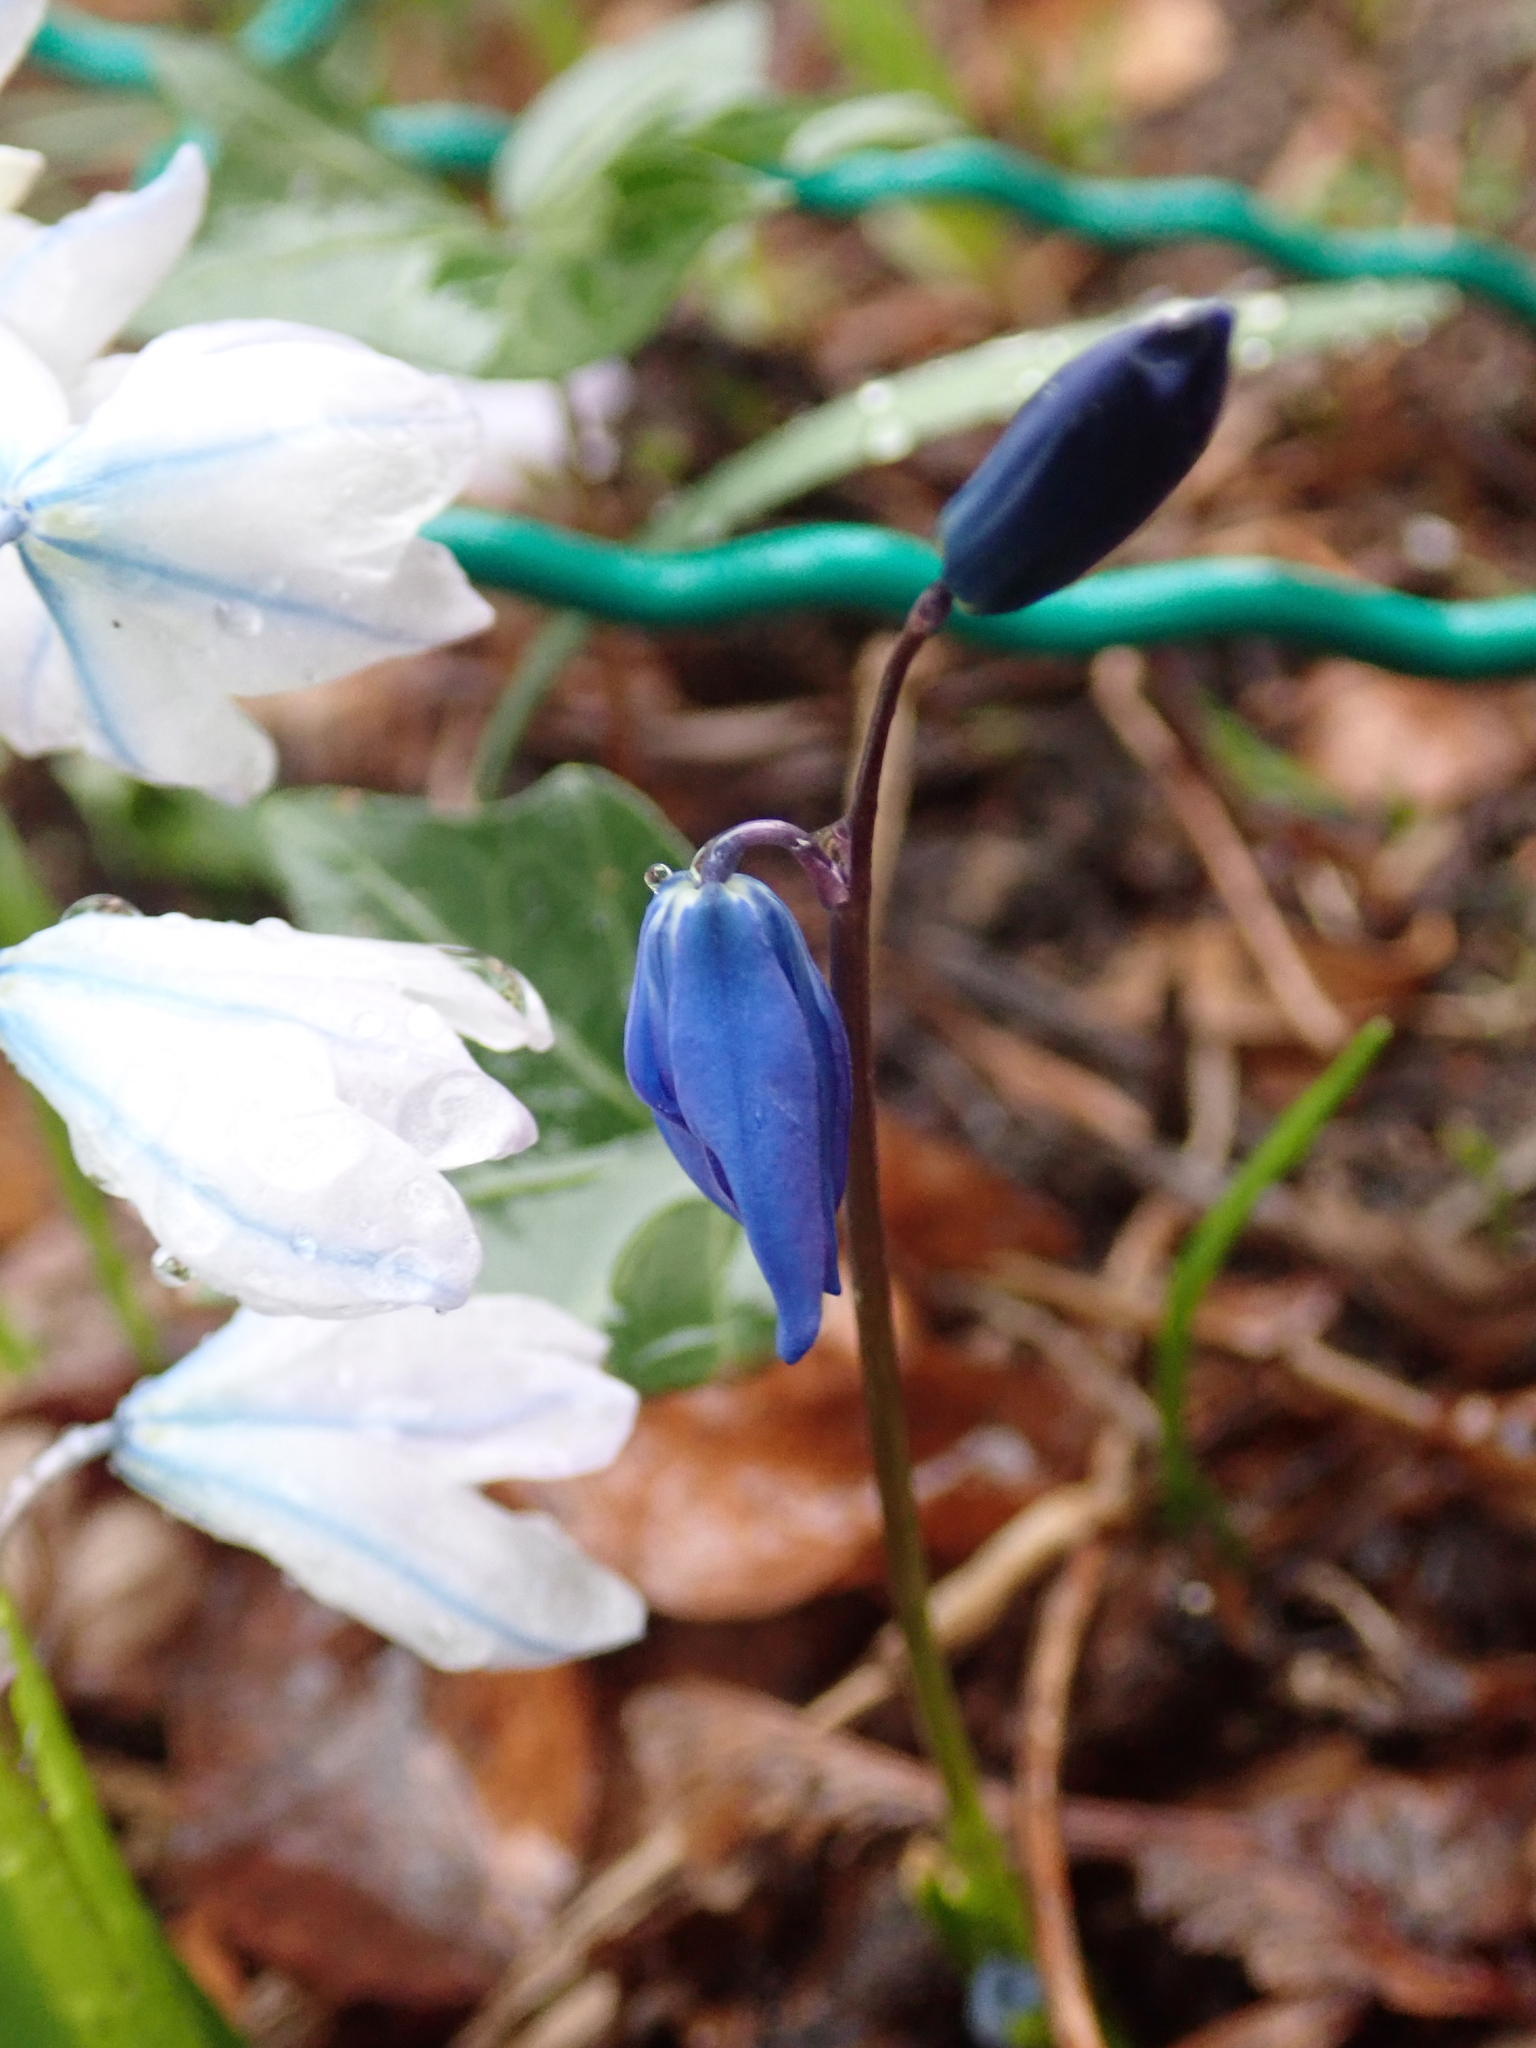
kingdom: Plantae
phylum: Tracheophyta
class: Liliopsida
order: Asparagales
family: Asparagaceae
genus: Scilla
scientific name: Scilla siberica
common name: Siberian squill
